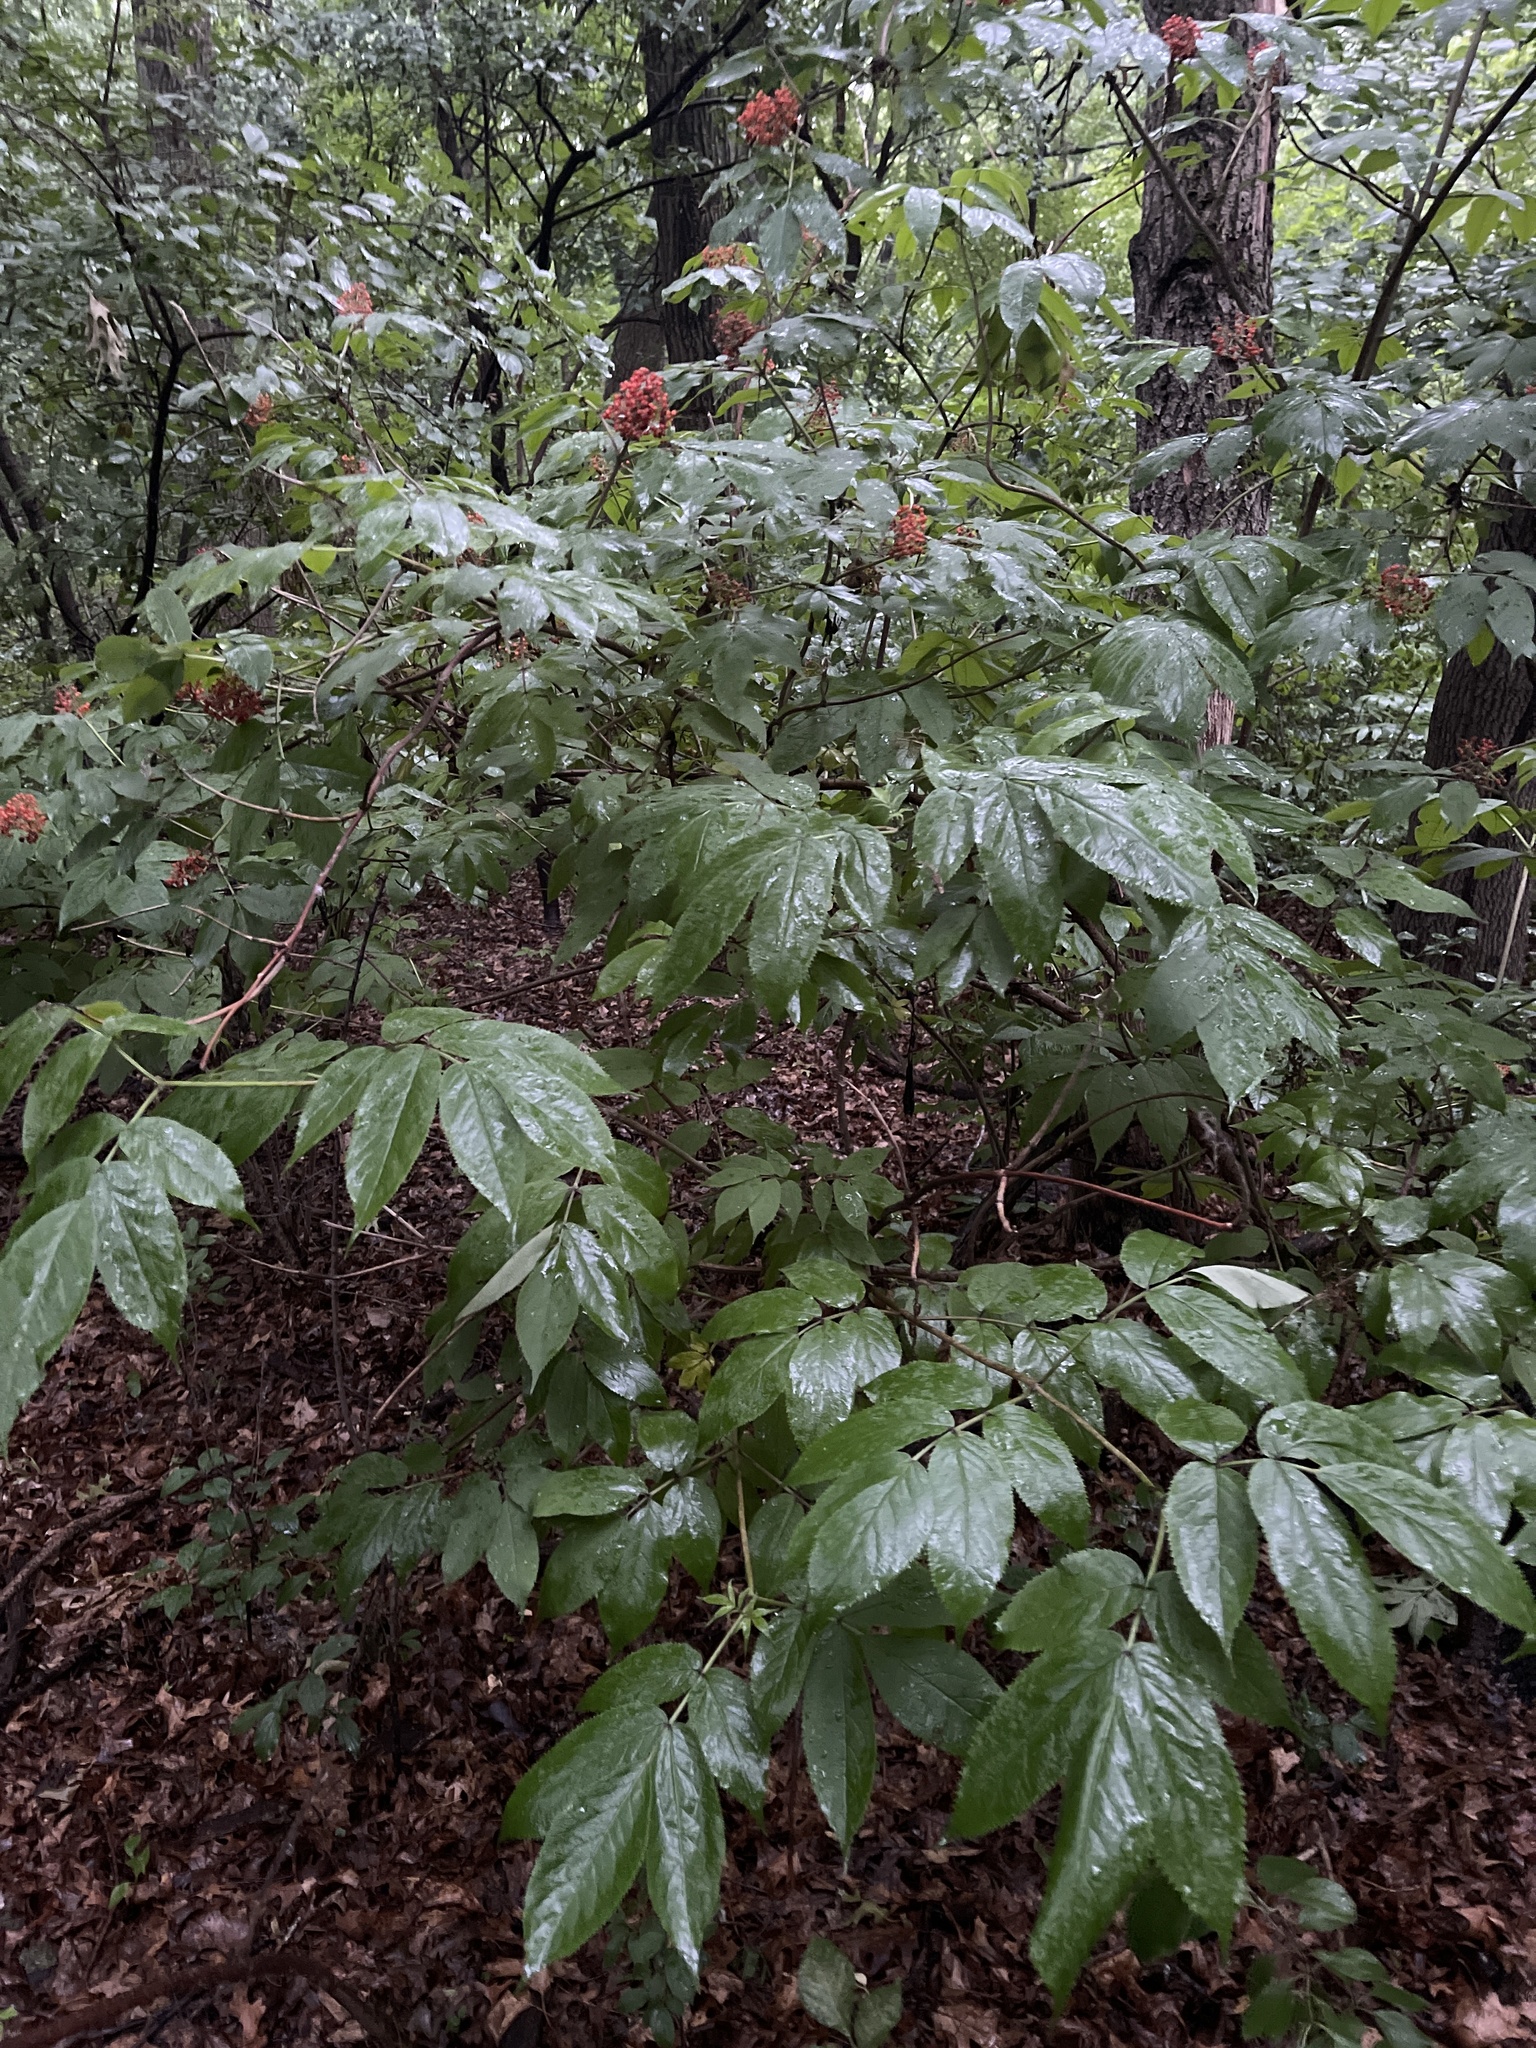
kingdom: Plantae
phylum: Tracheophyta
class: Magnoliopsida
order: Dipsacales
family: Viburnaceae
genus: Sambucus
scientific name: Sambucus racemosa
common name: Red-berried elder
